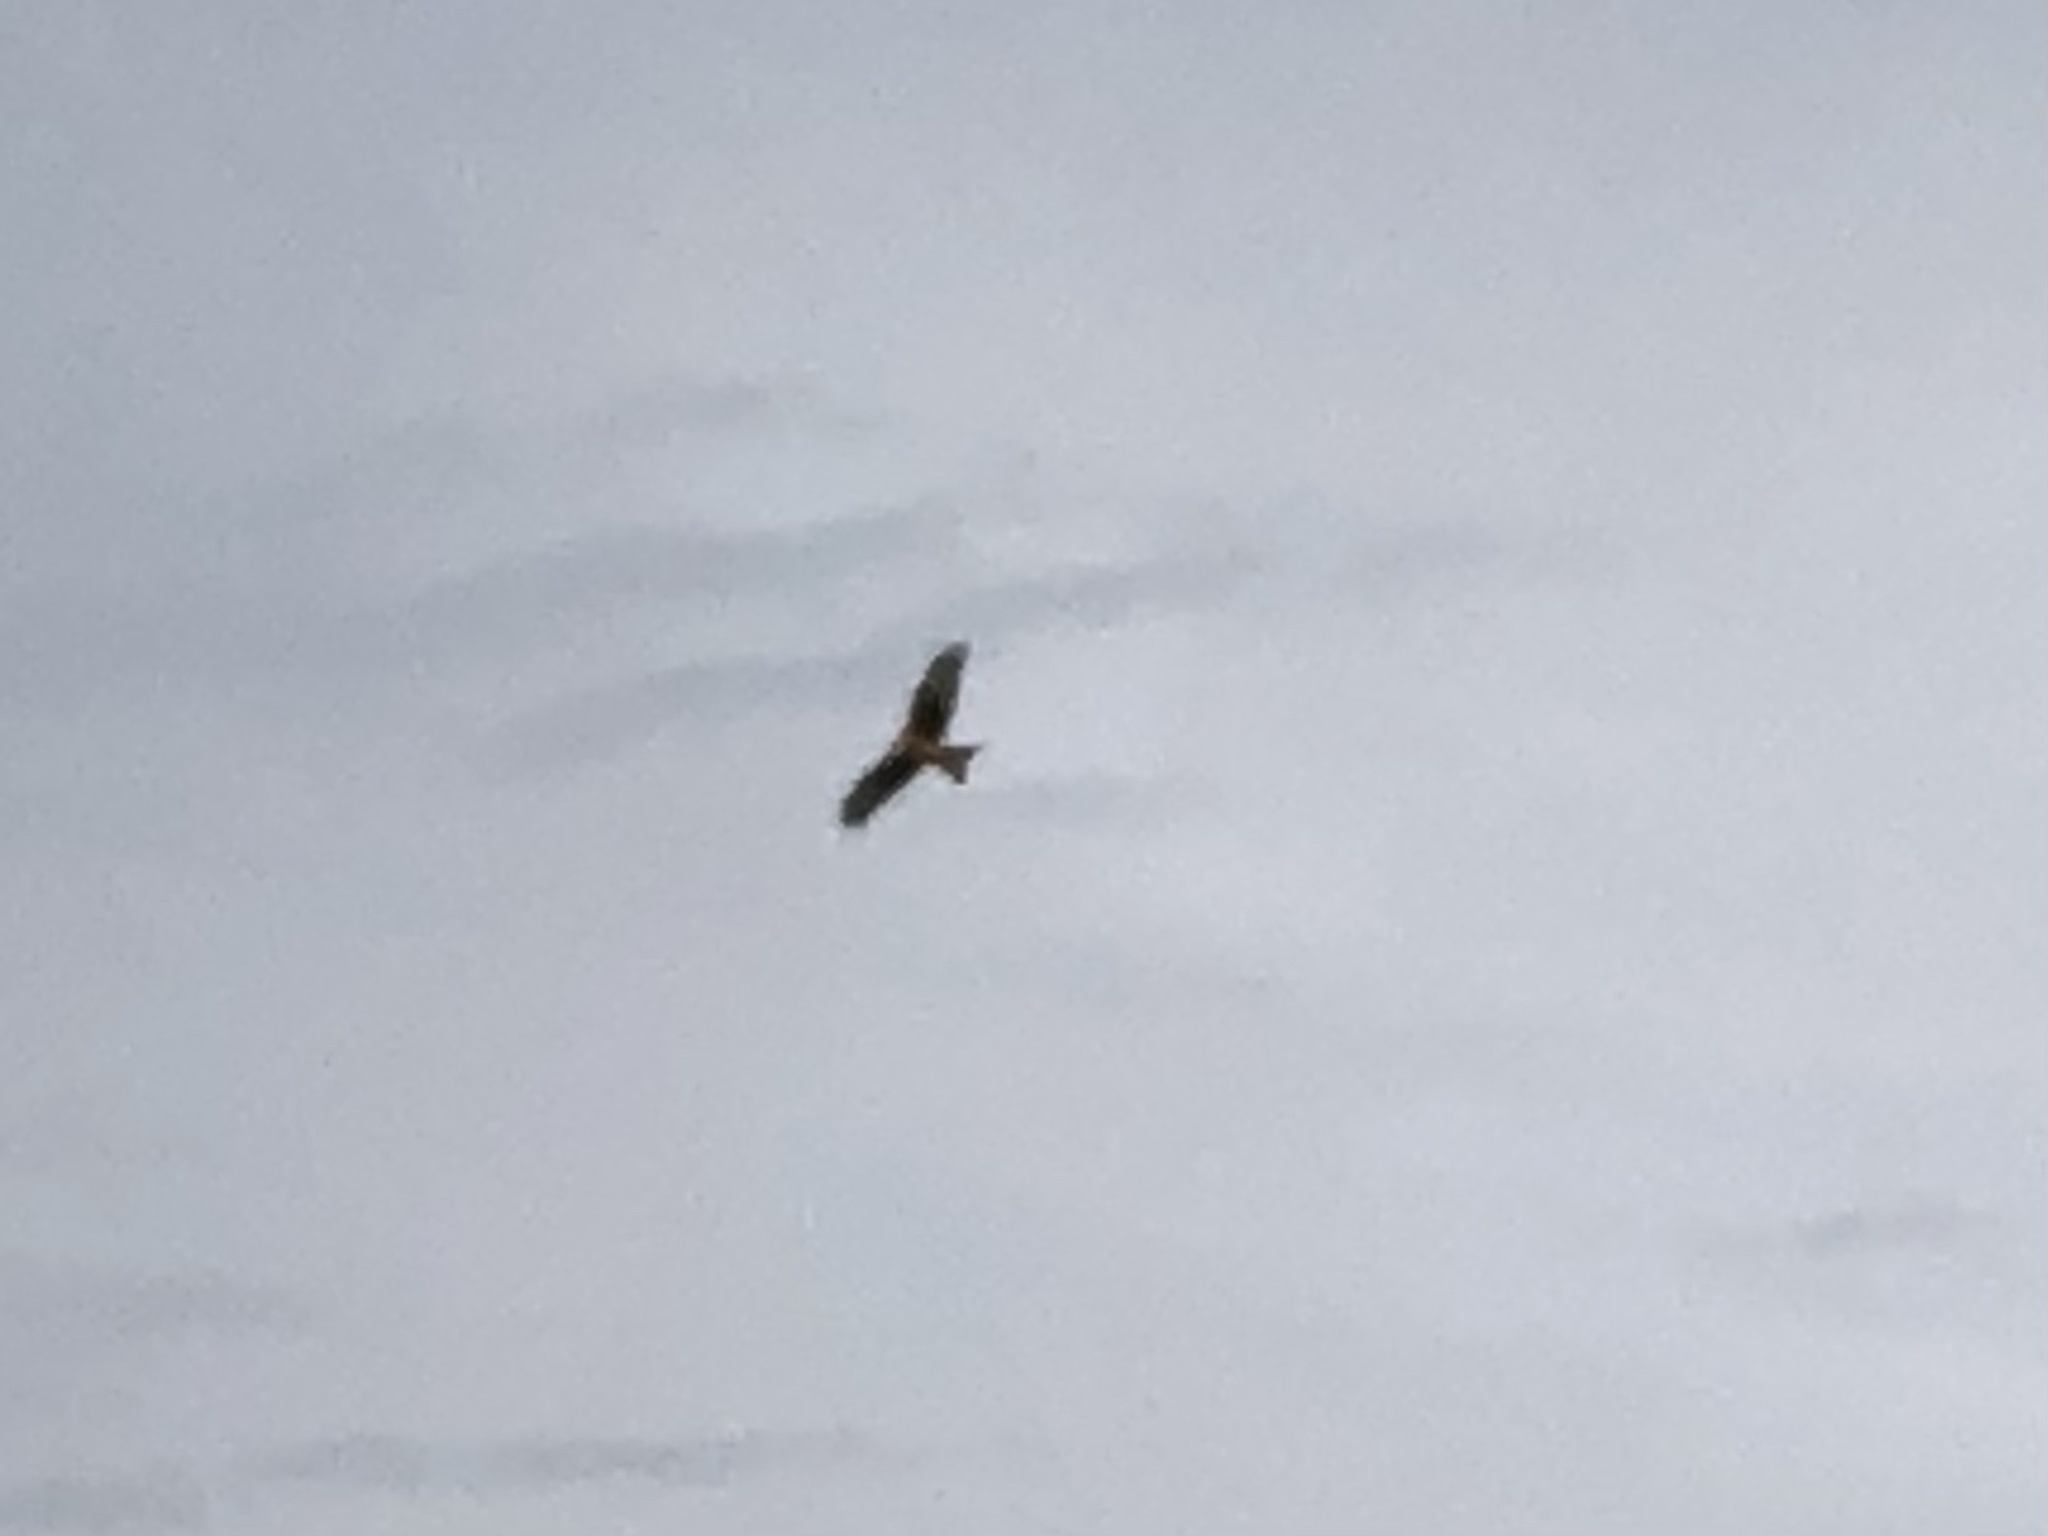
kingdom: Animalia
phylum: Chordata
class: Aves
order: Accipitriformes
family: Accipitridae
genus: Milvus
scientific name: Milvus milvus
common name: Red kite
